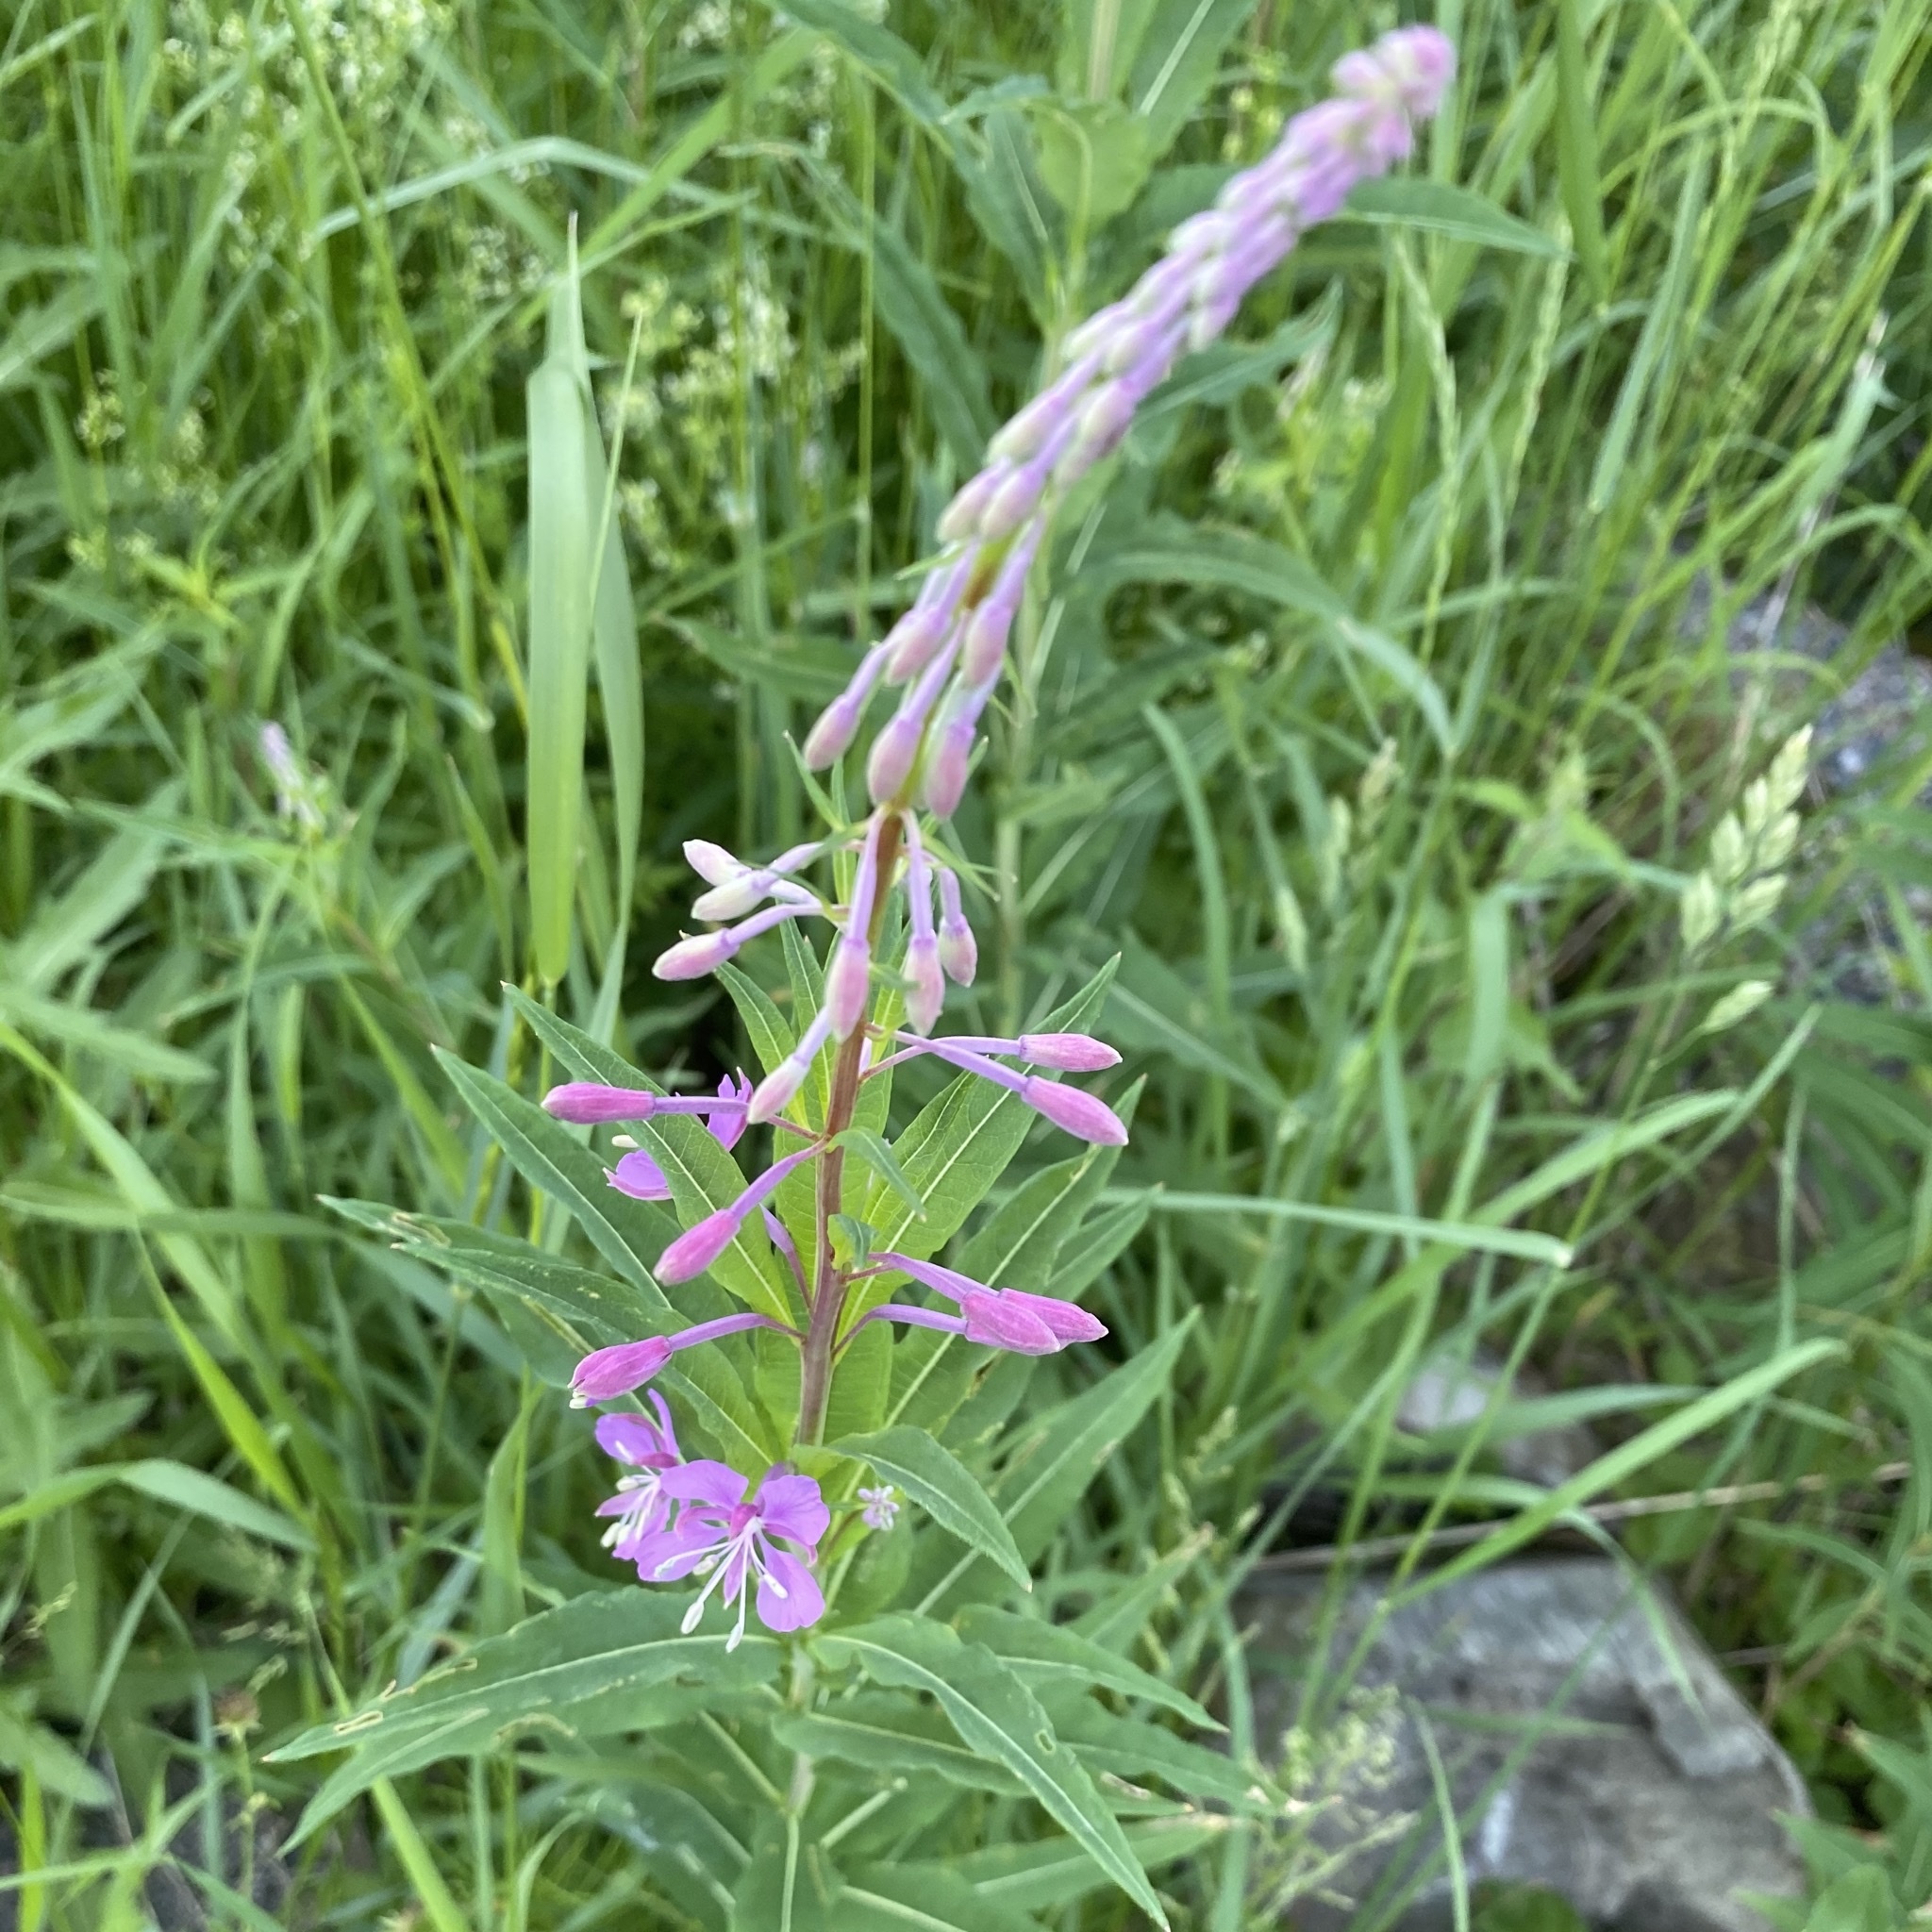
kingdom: Plantae
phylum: Tracheophyta
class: Magnoliopsida
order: Myrtales
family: Onagraceae
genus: Chamaenerion
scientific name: Chamaenerion angustifolium
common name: Fireweed
